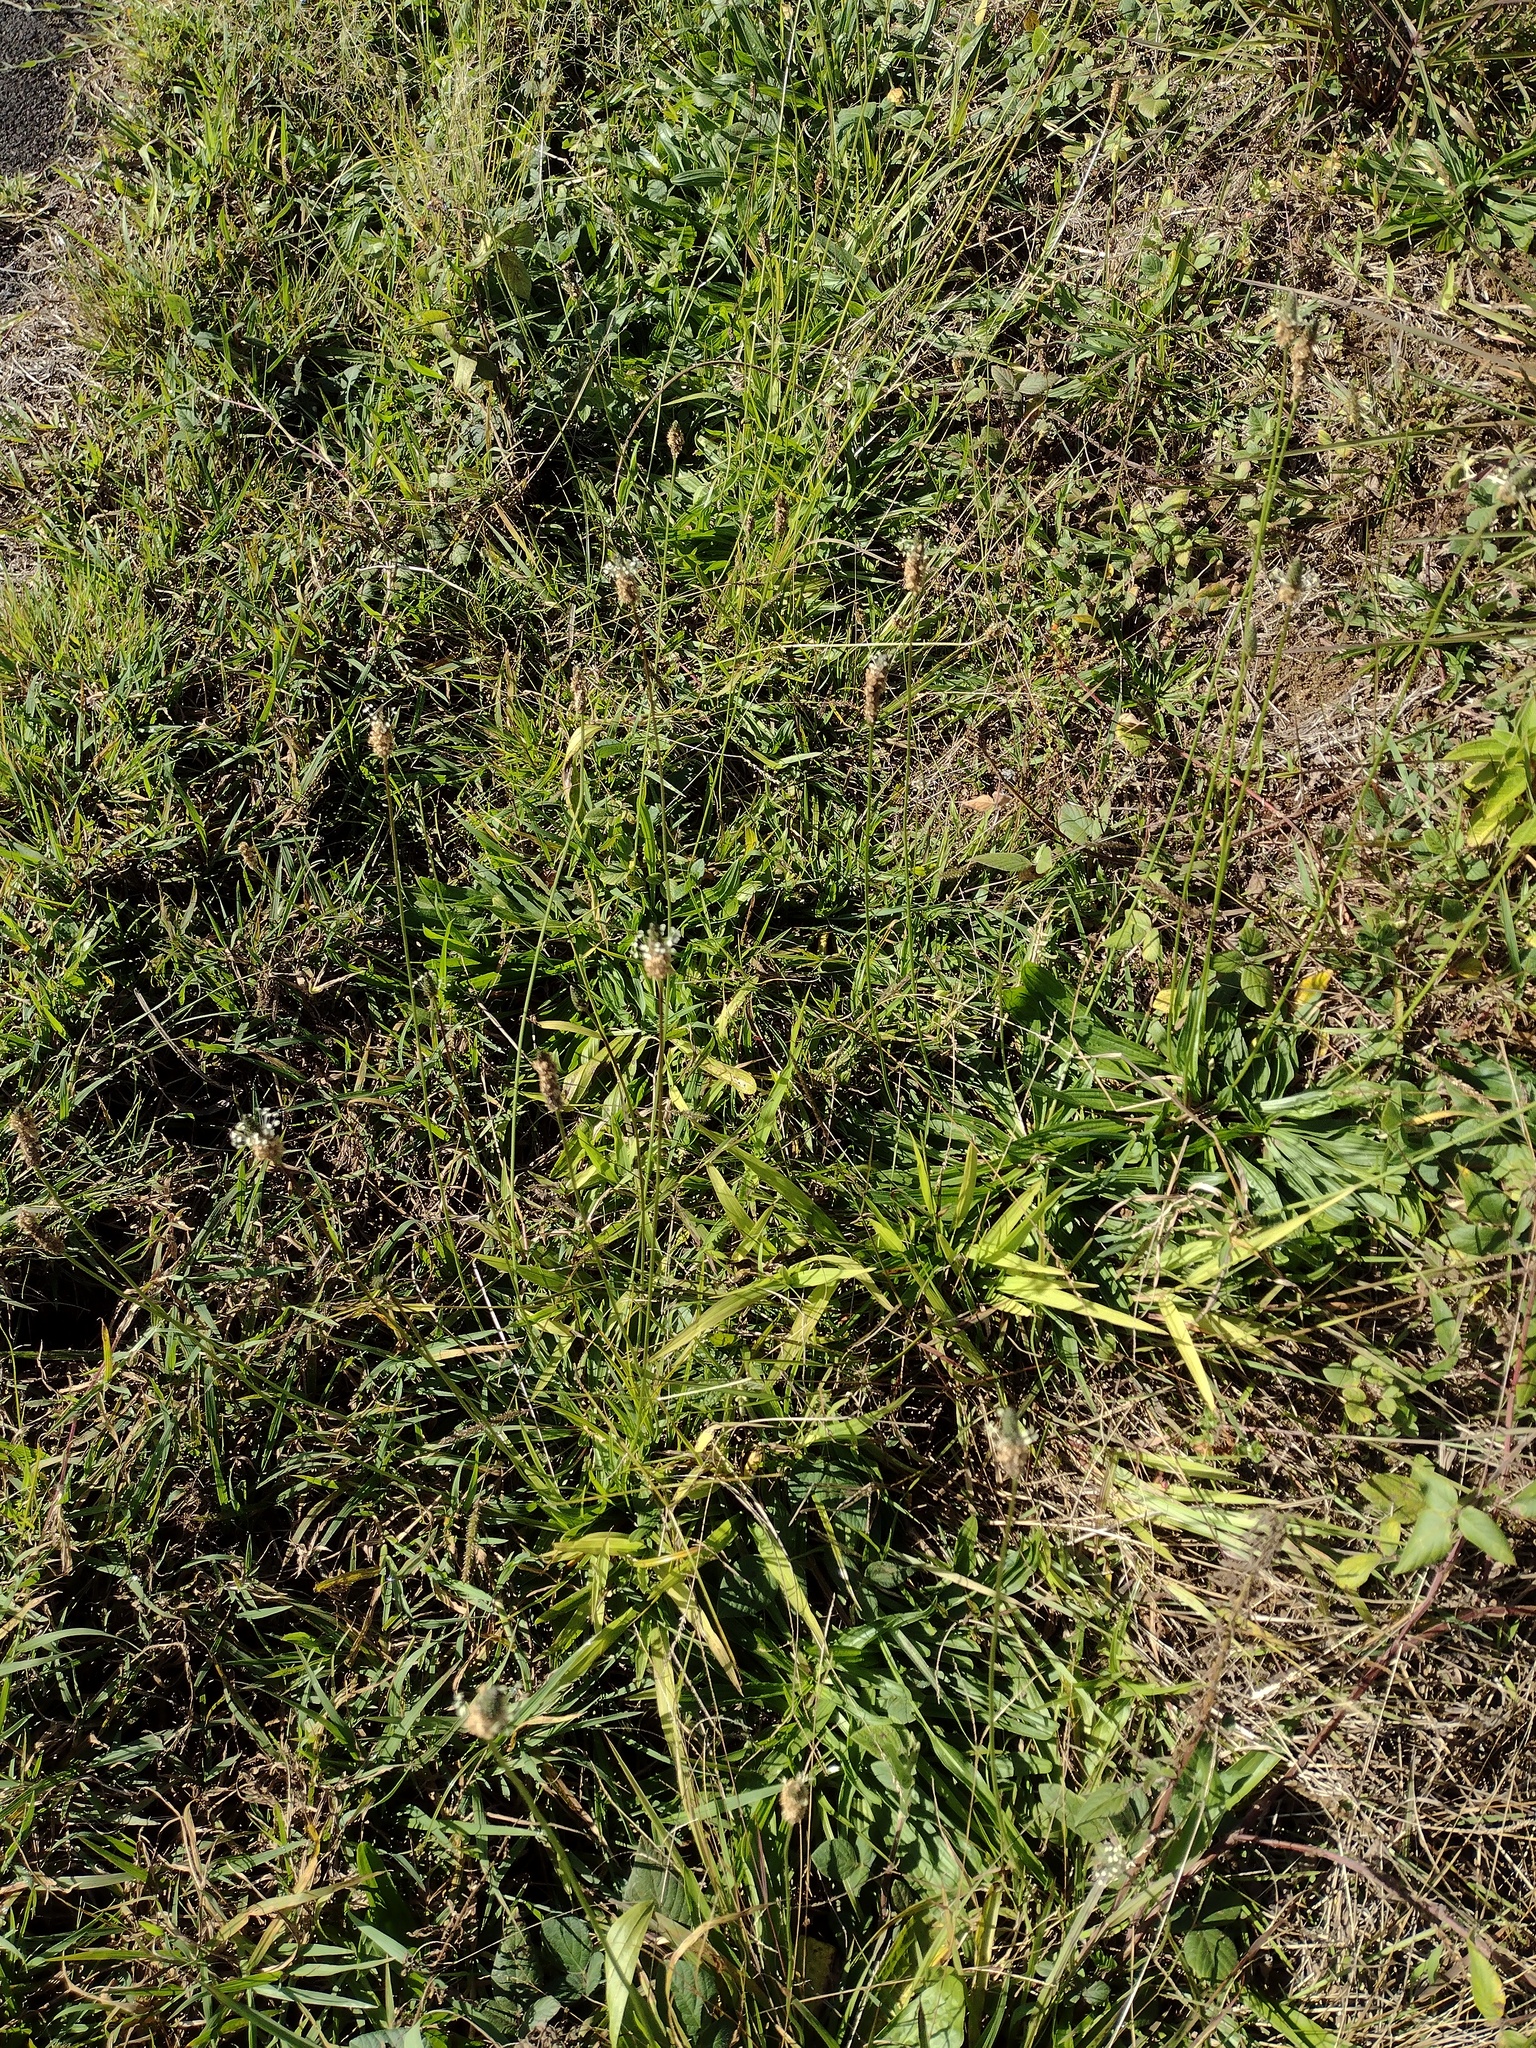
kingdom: Plantae
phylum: Tracheophyta
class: Magnoliopsida
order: Lamiales
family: Plantaginaceae
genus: Plantago
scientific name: Plantago lanceolata
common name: Ribwort plantain
